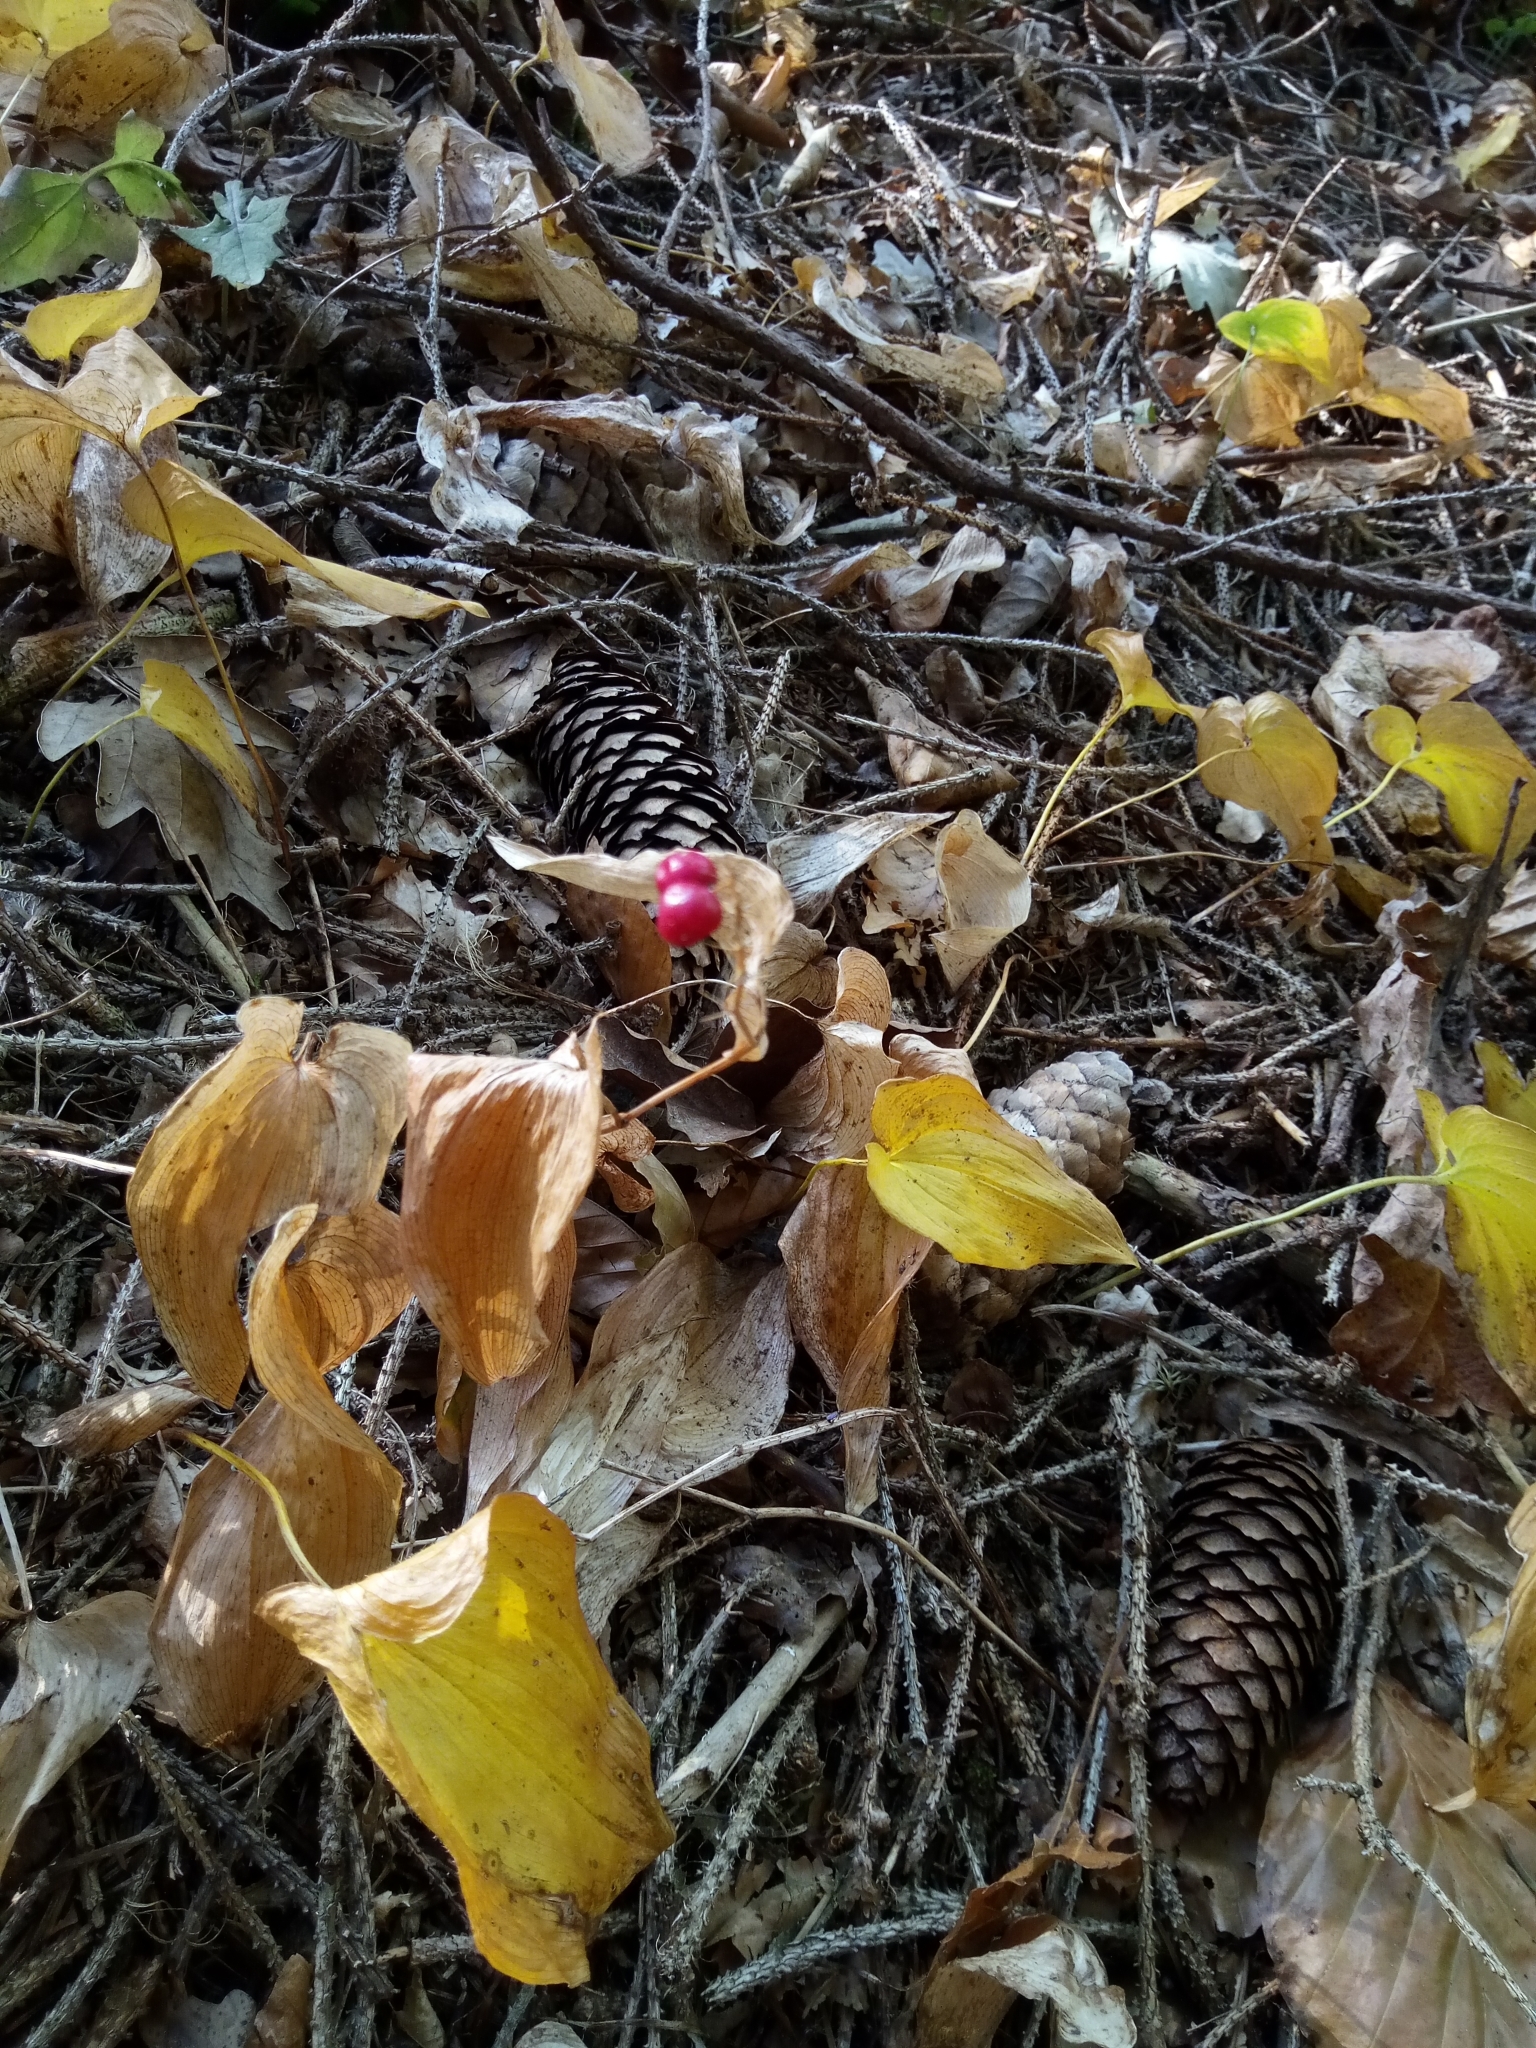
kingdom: Plantae
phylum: Tracheophyta
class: Liliopsida
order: Asparagales
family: Asparagaceae
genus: Maianthemum
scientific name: Maianthemum bifolium
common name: May lily
